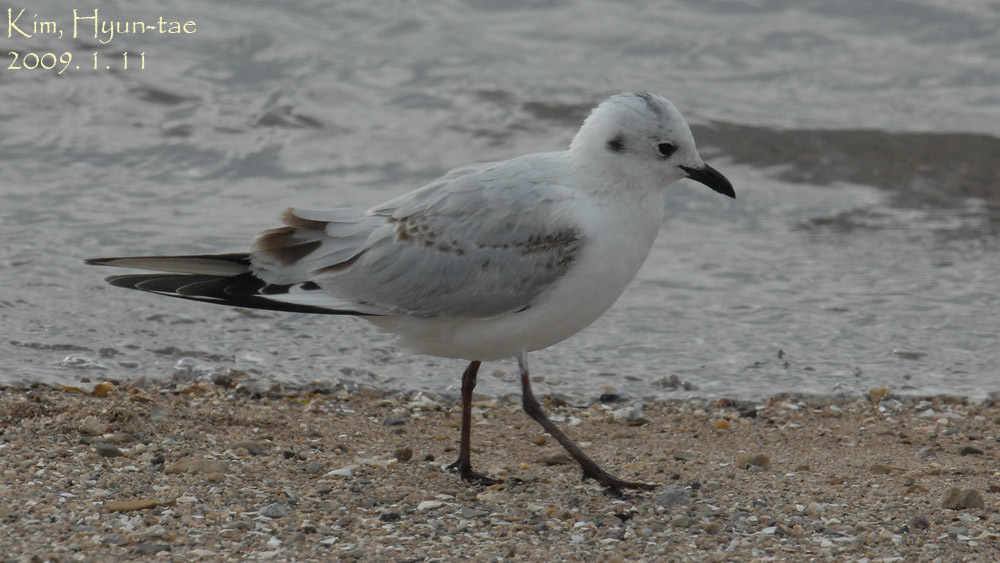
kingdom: Animalia
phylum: Chordata
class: Aves
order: Charadriiformes
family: Laridae
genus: Chroicocephalus
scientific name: Chroicocephalus saundersi
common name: Saunders's gull
